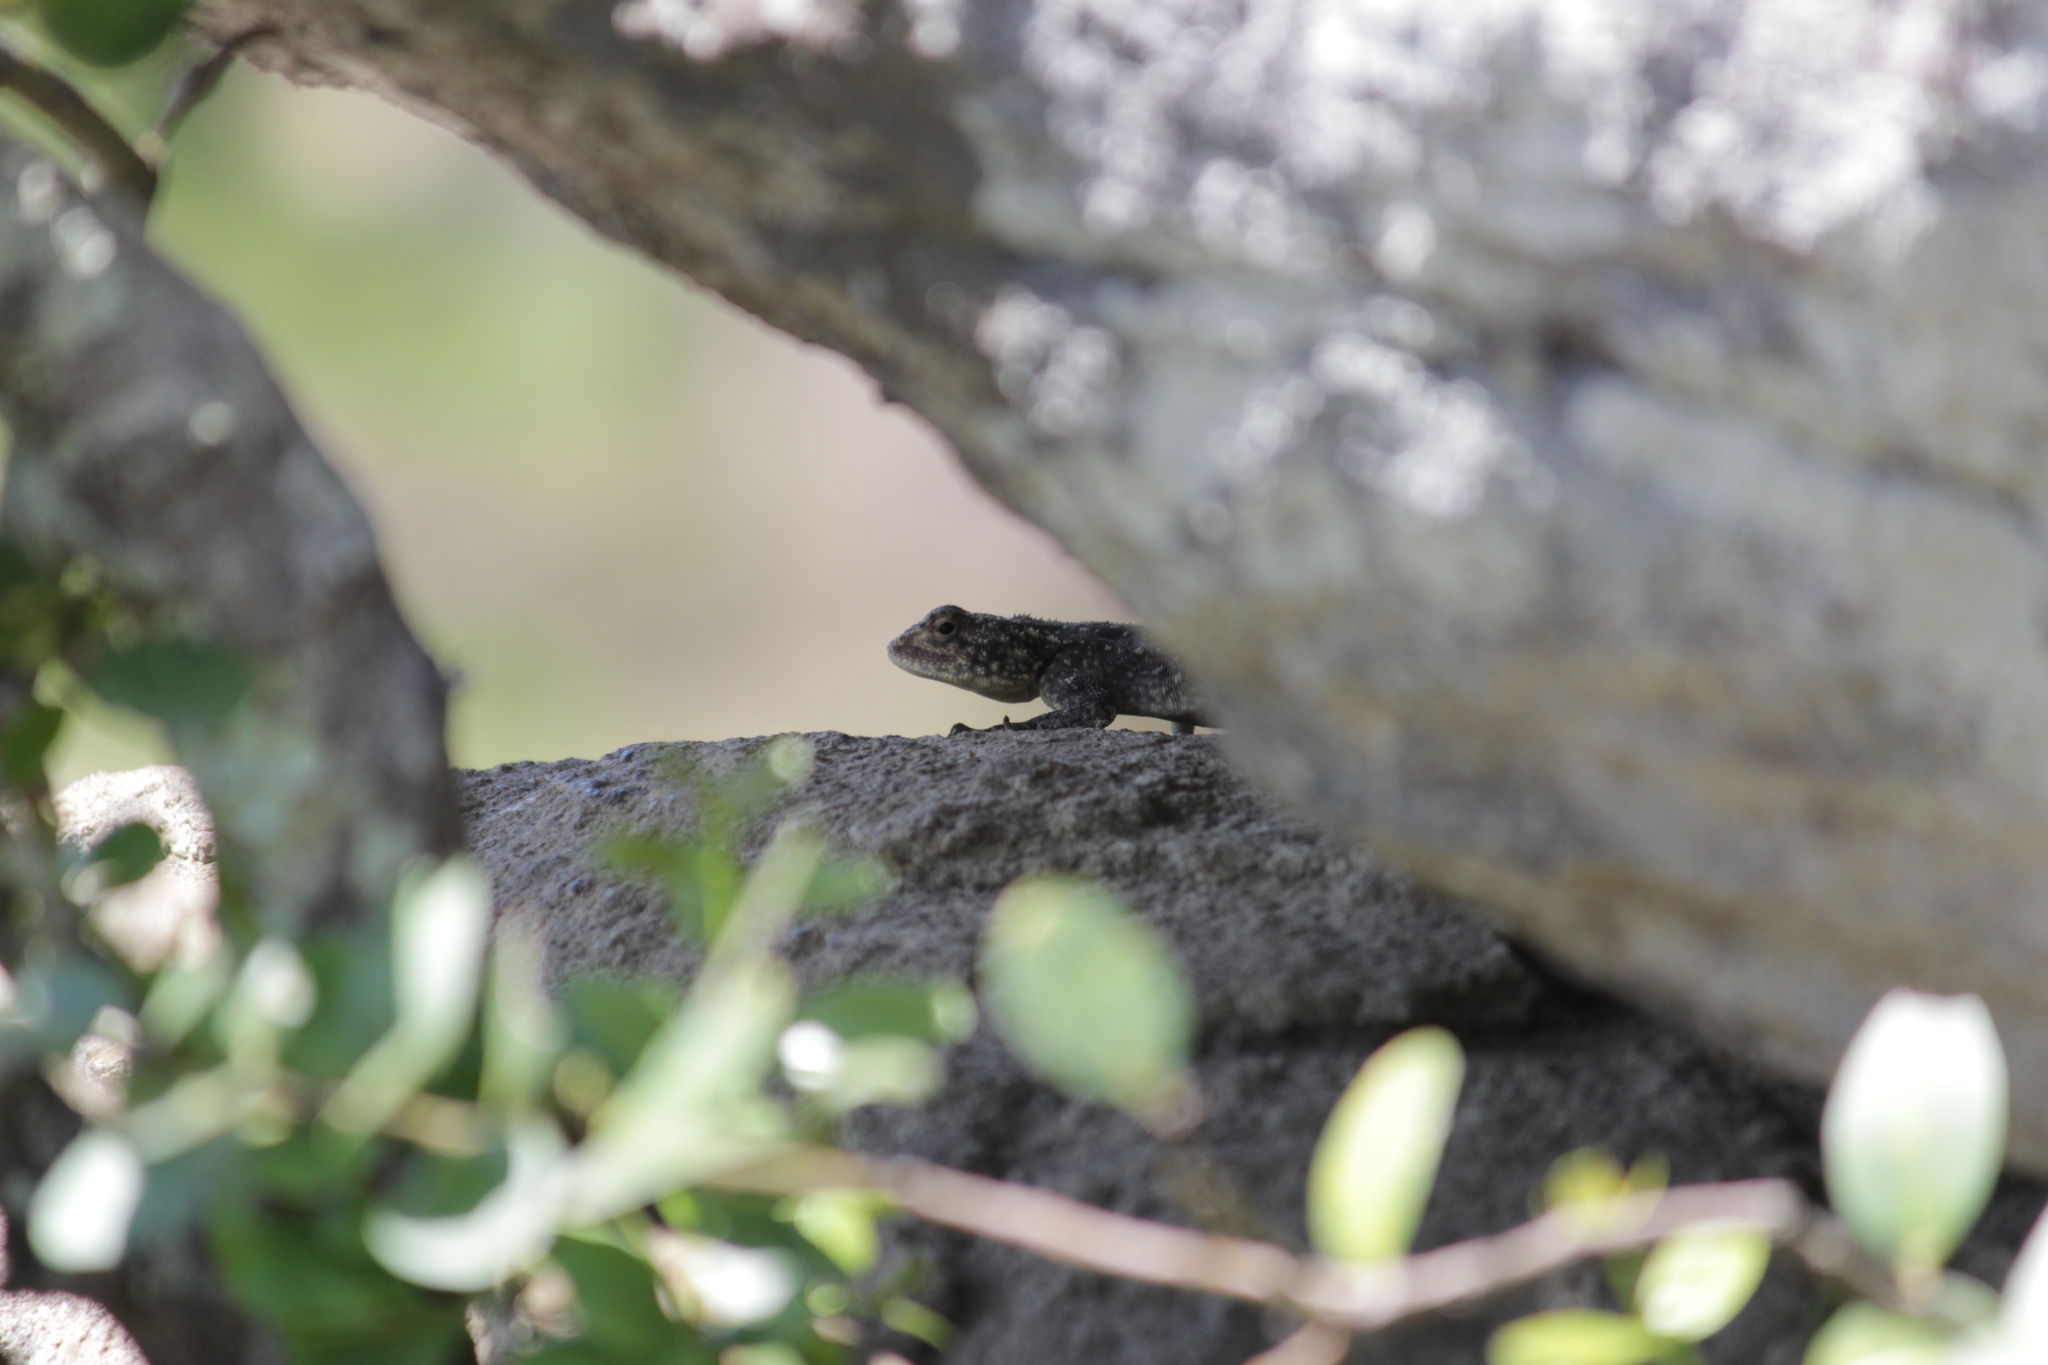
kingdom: Animalia
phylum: Chordata
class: Squamata
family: Agamidae
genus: Agama
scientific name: Agama atra
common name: Southern african rock agama
